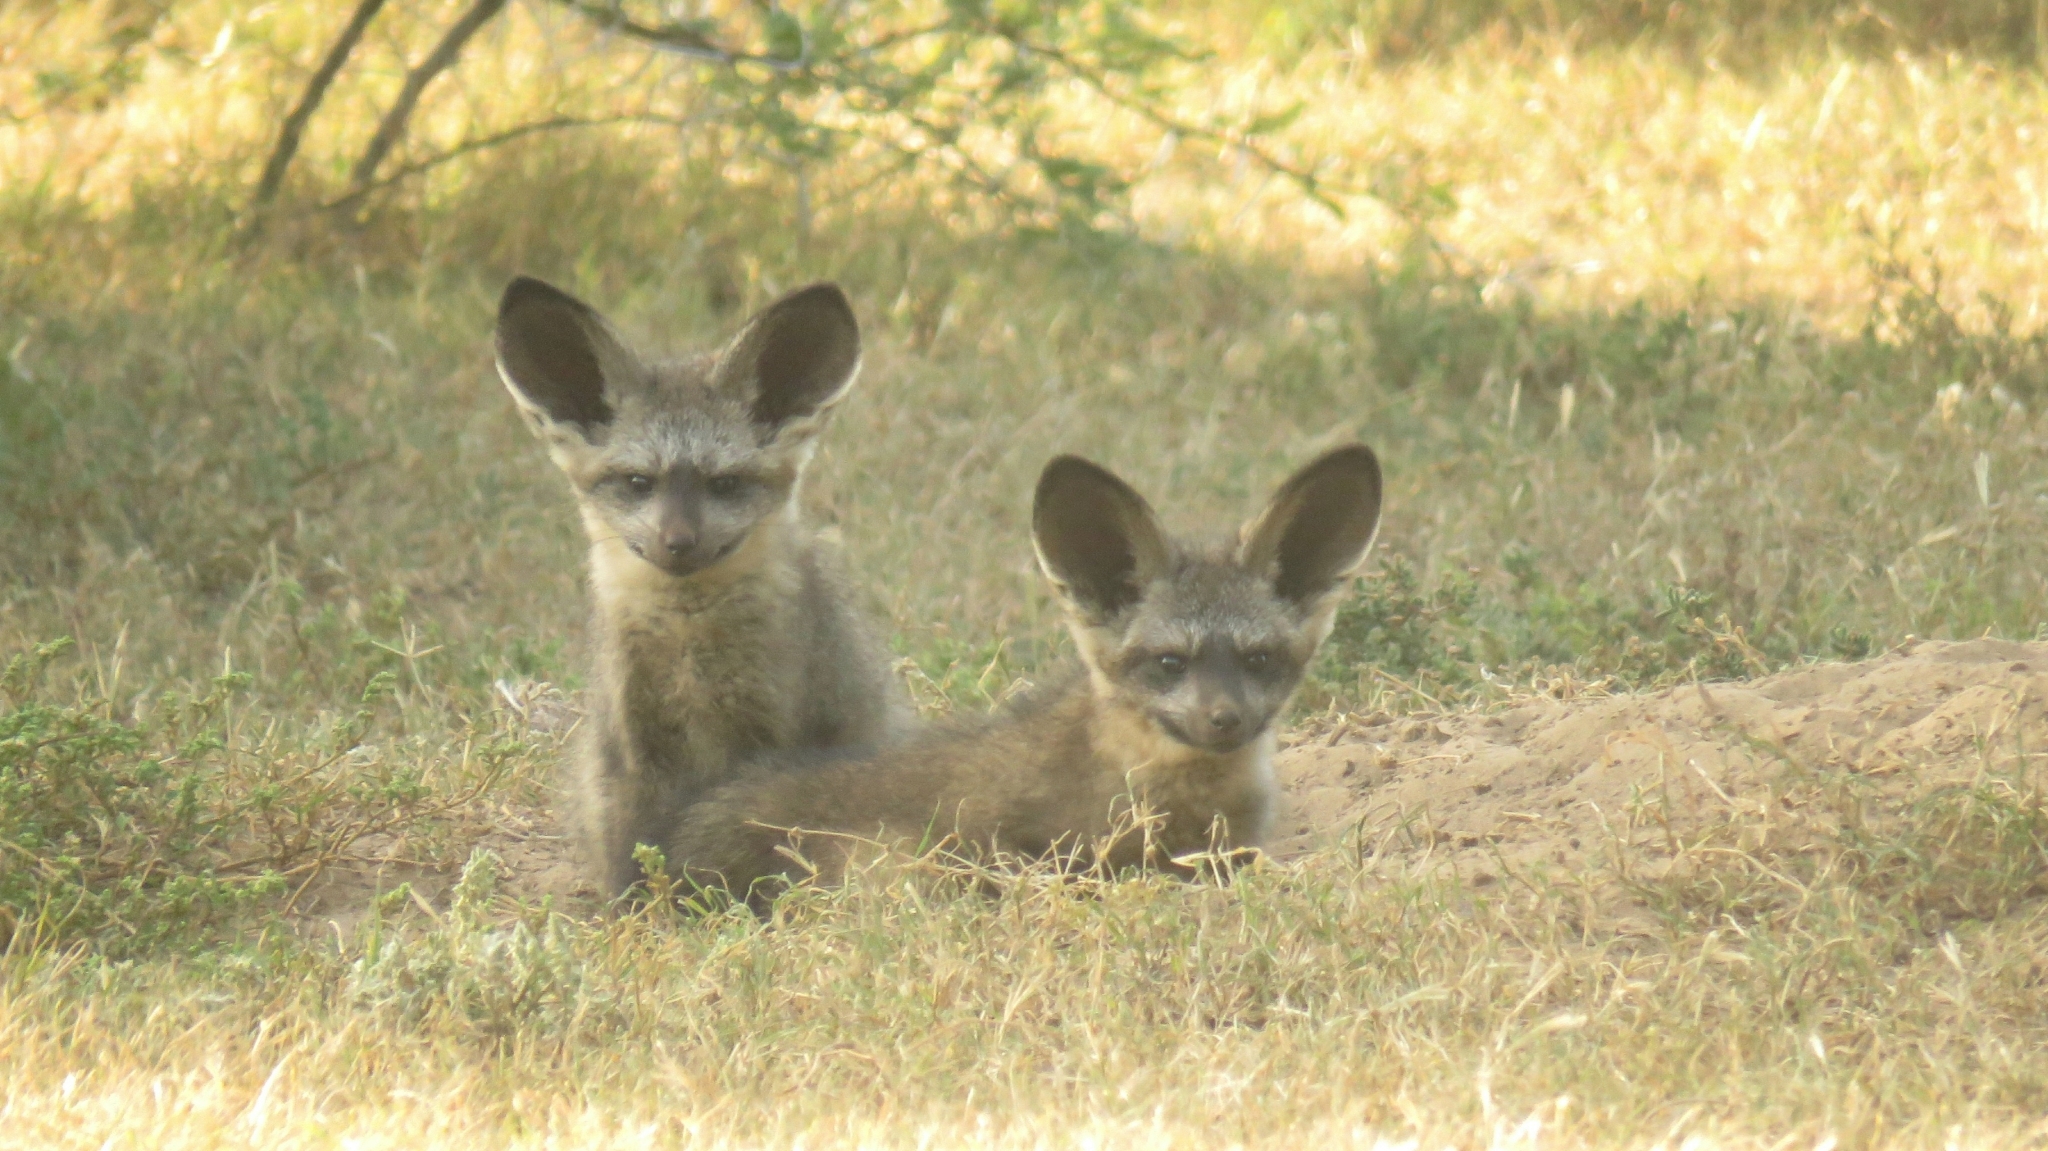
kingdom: Animalia
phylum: Chordata
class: Mammalia
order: Carnivora
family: Canidae
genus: Otocyon
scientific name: Otocyon megalotis
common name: Bat-eared fox
